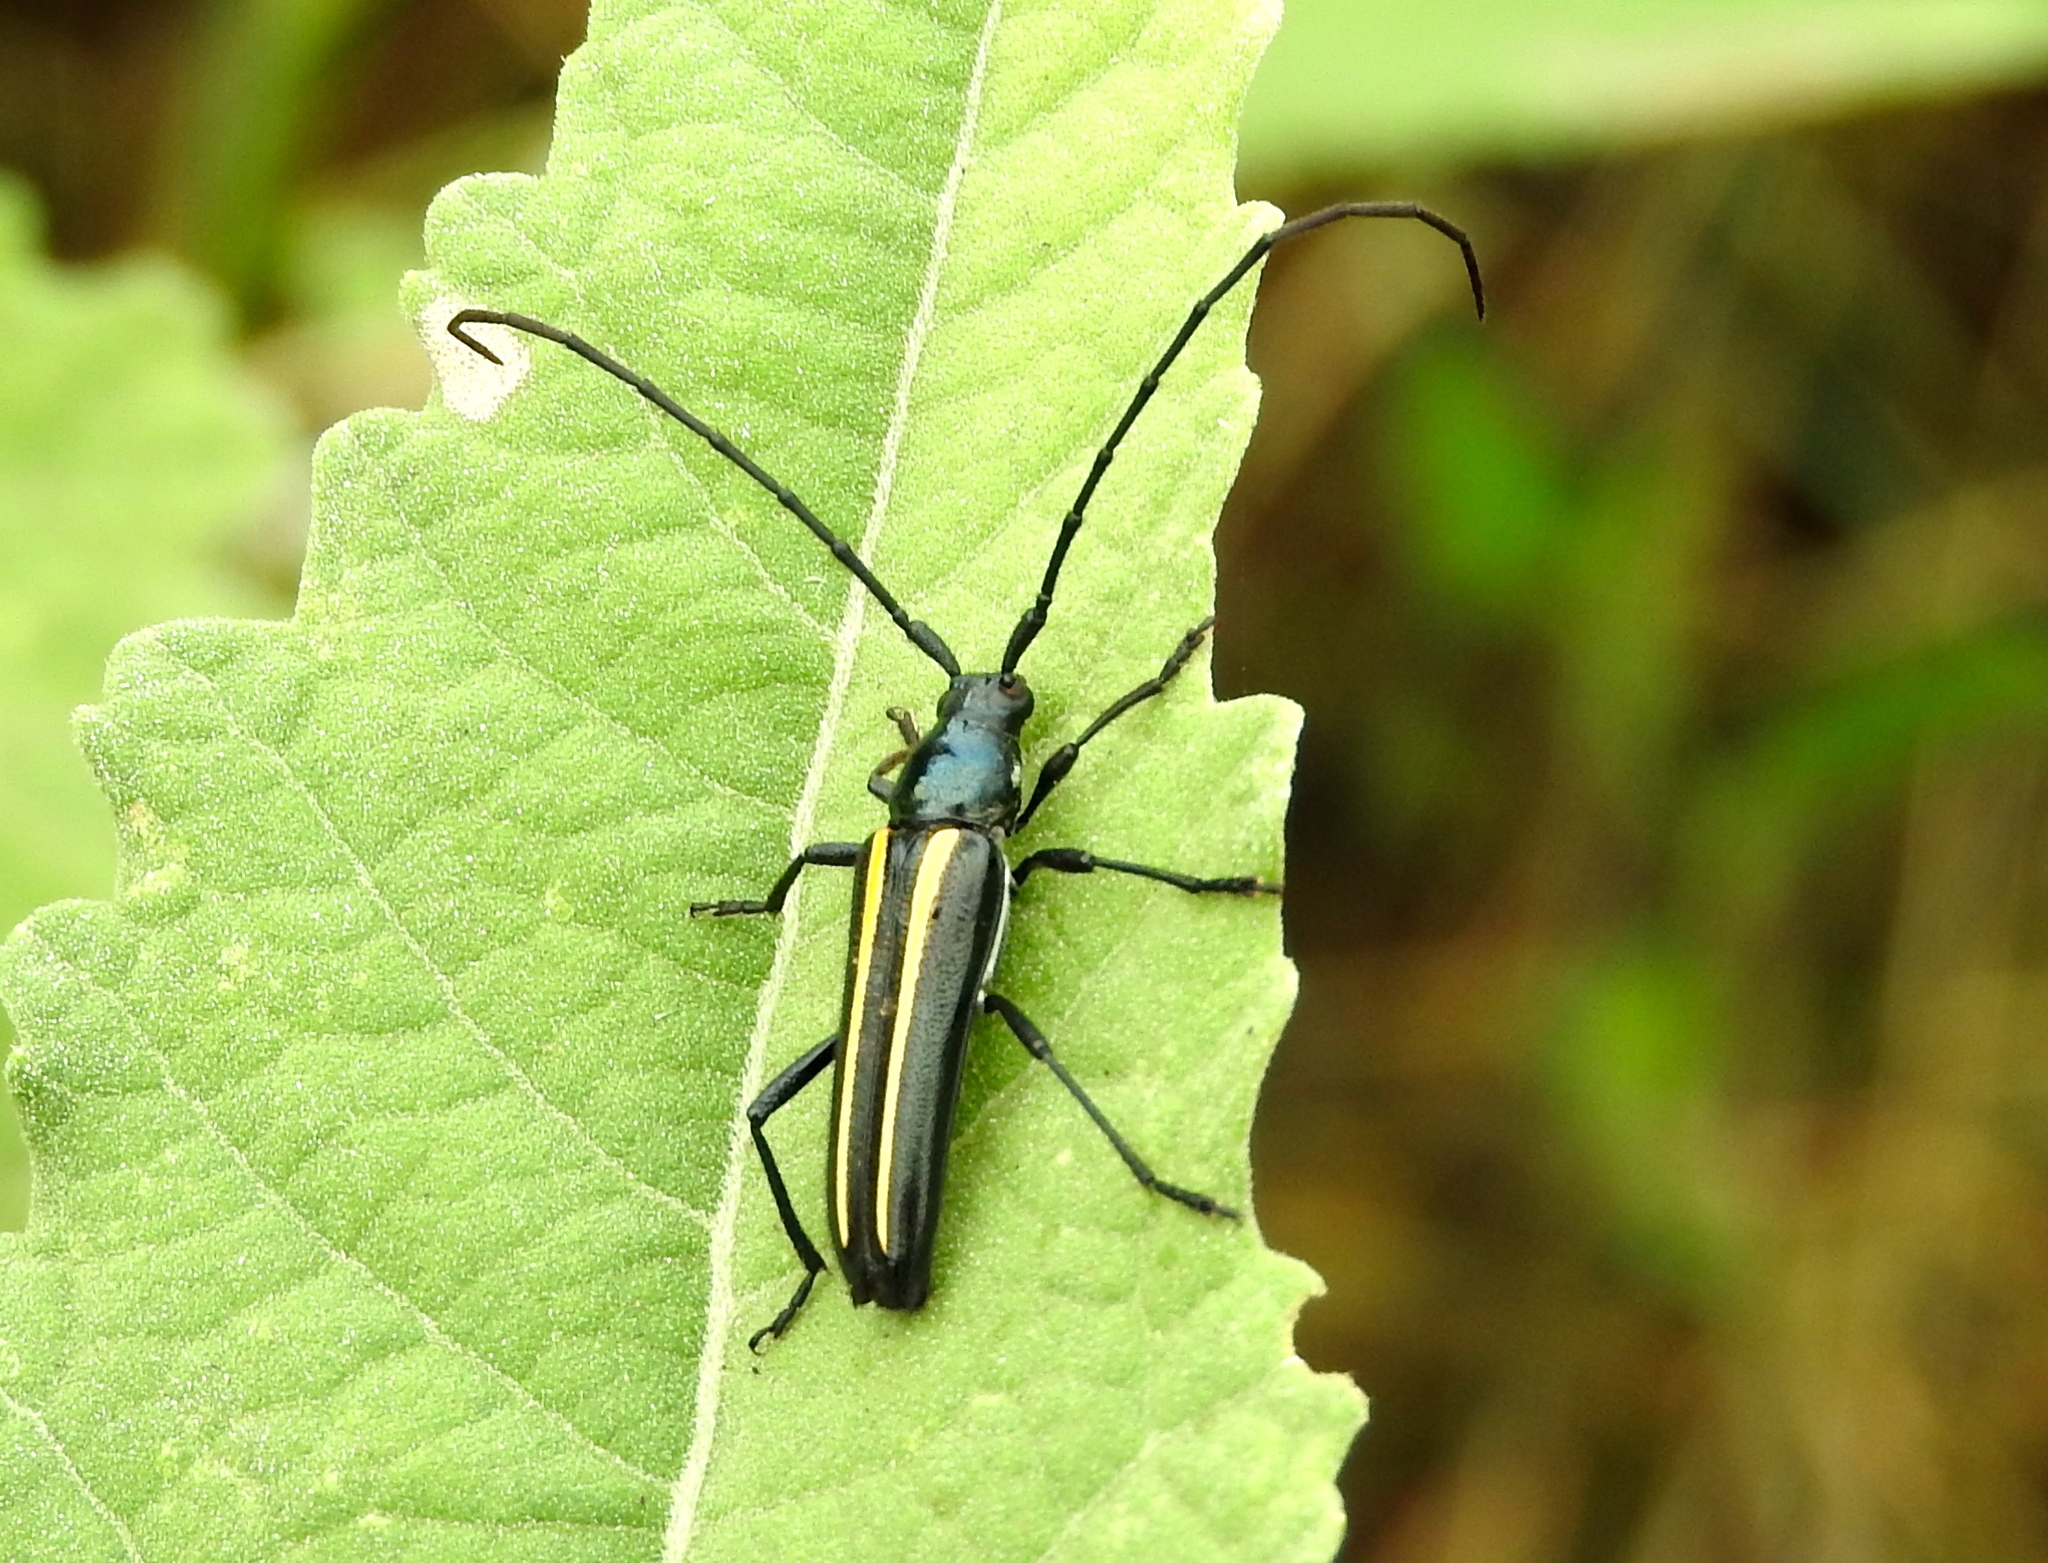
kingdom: Animalia
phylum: Arthropoda
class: Insecta
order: Coleoptera
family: Cerambycidae
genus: Lophalia
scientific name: Lophalia prolata
